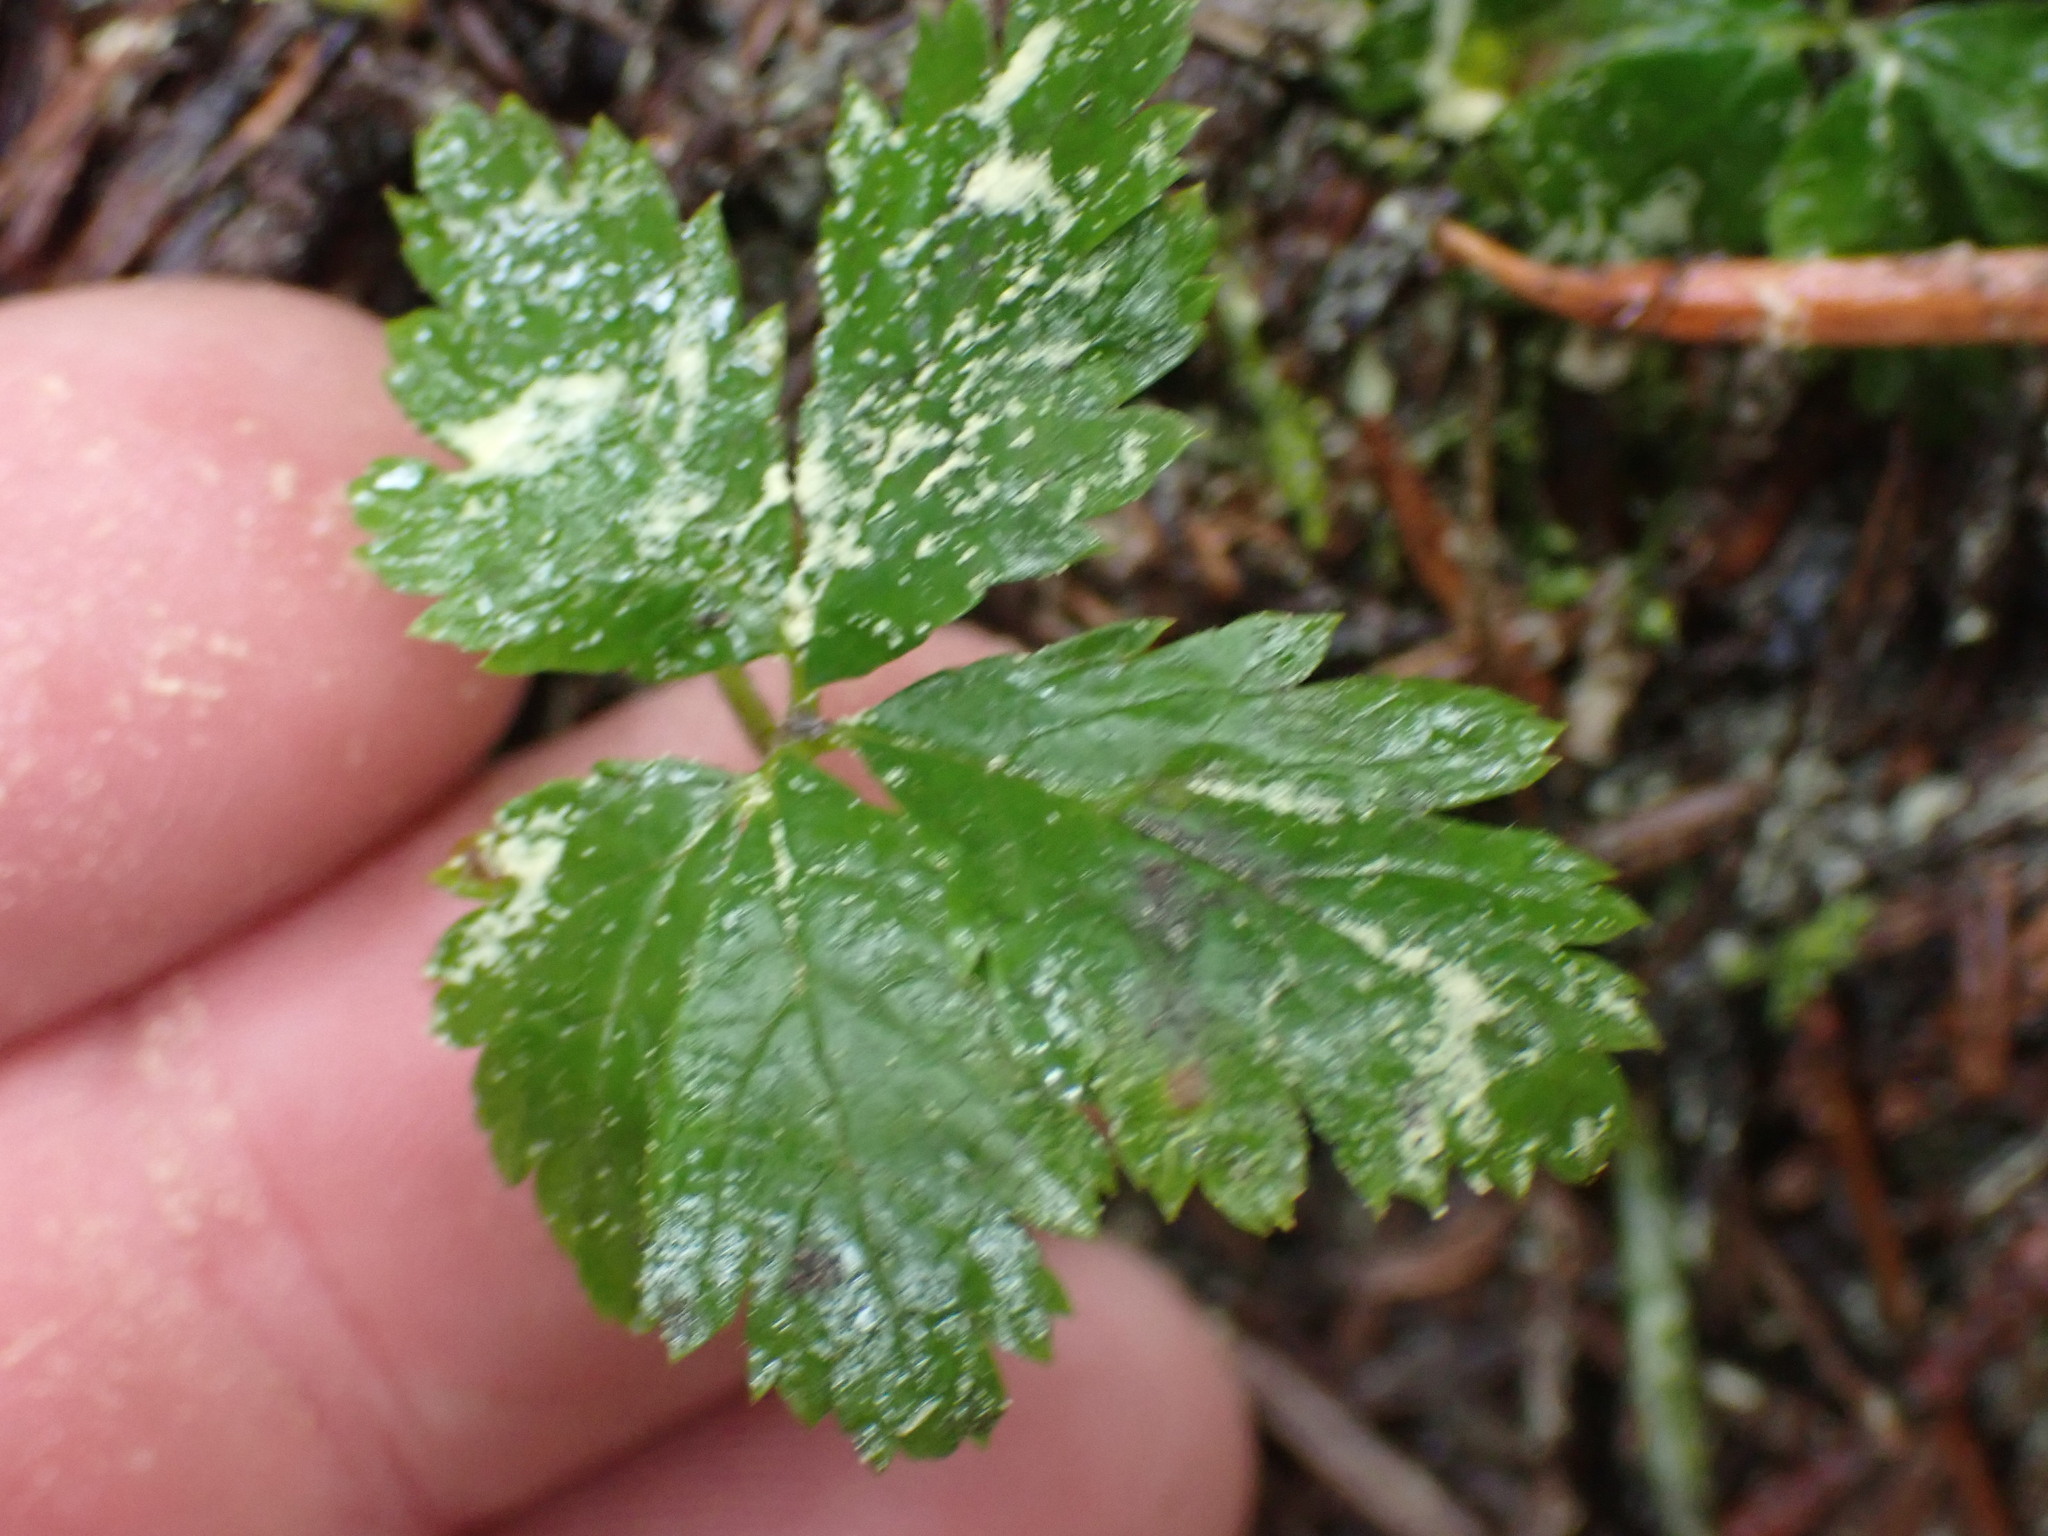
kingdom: Plantae
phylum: Tracheophyta
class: Magnoliopsida
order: Rosales
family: Rosaceae
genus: Rubus
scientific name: Rubus pedatus
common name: Creeping raspberry
